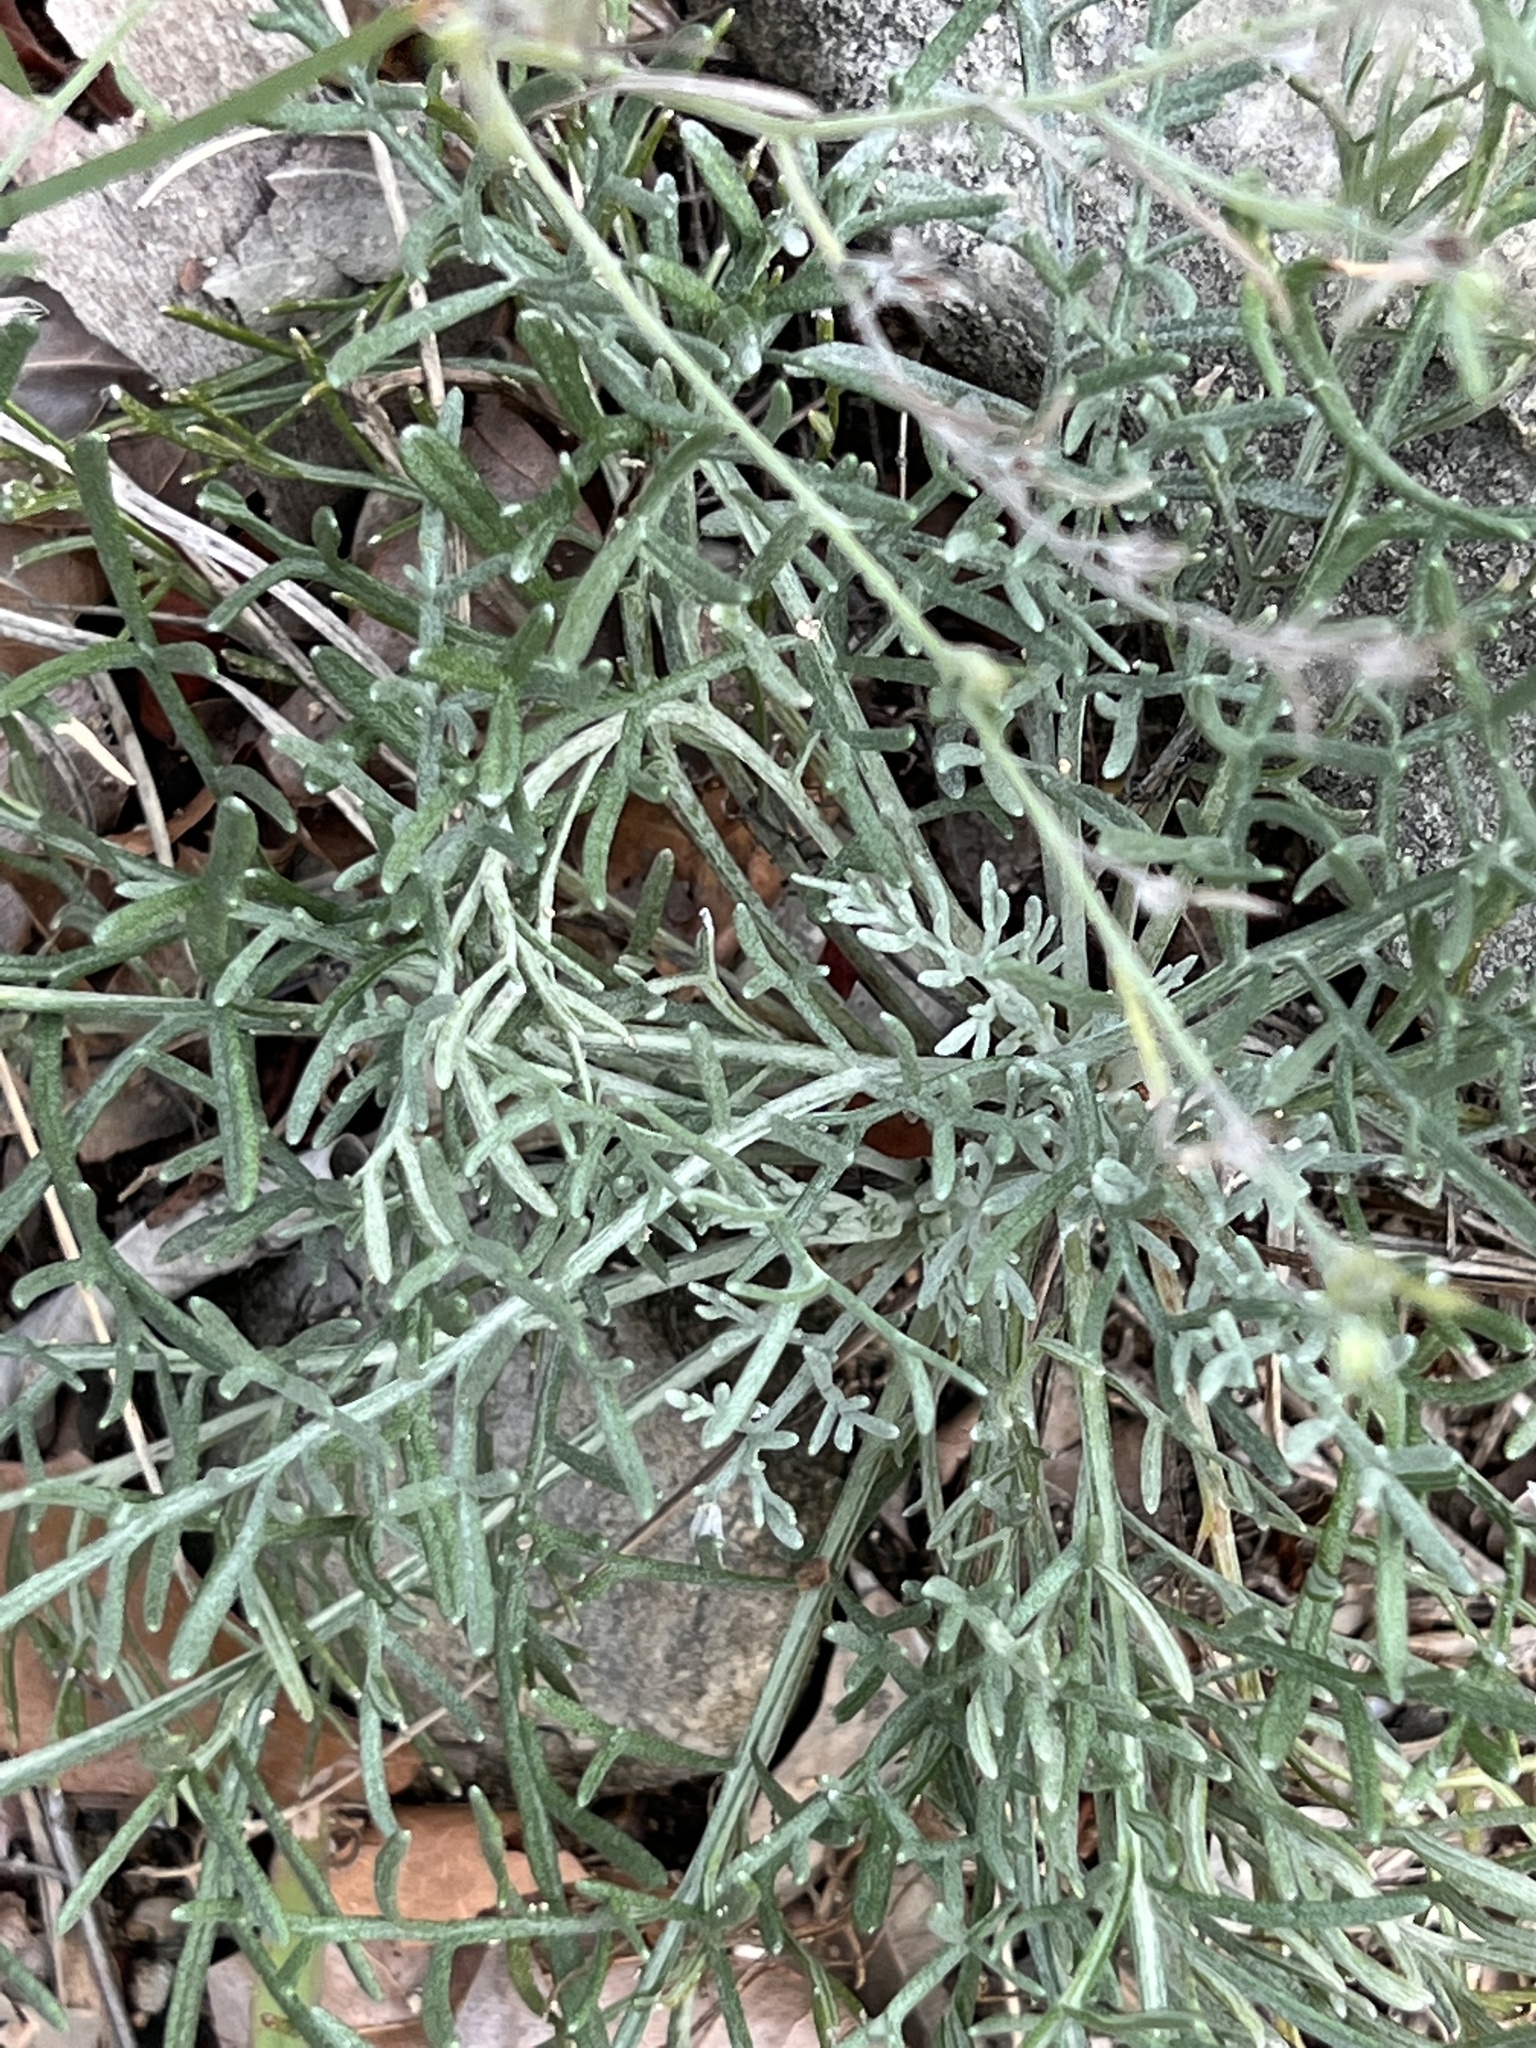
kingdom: Plantae
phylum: Tracheophyta
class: Magnoliopsida
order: Asterales
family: Asteraceae
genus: Hymenopappus
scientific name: Hymenopappus tenuifolius
